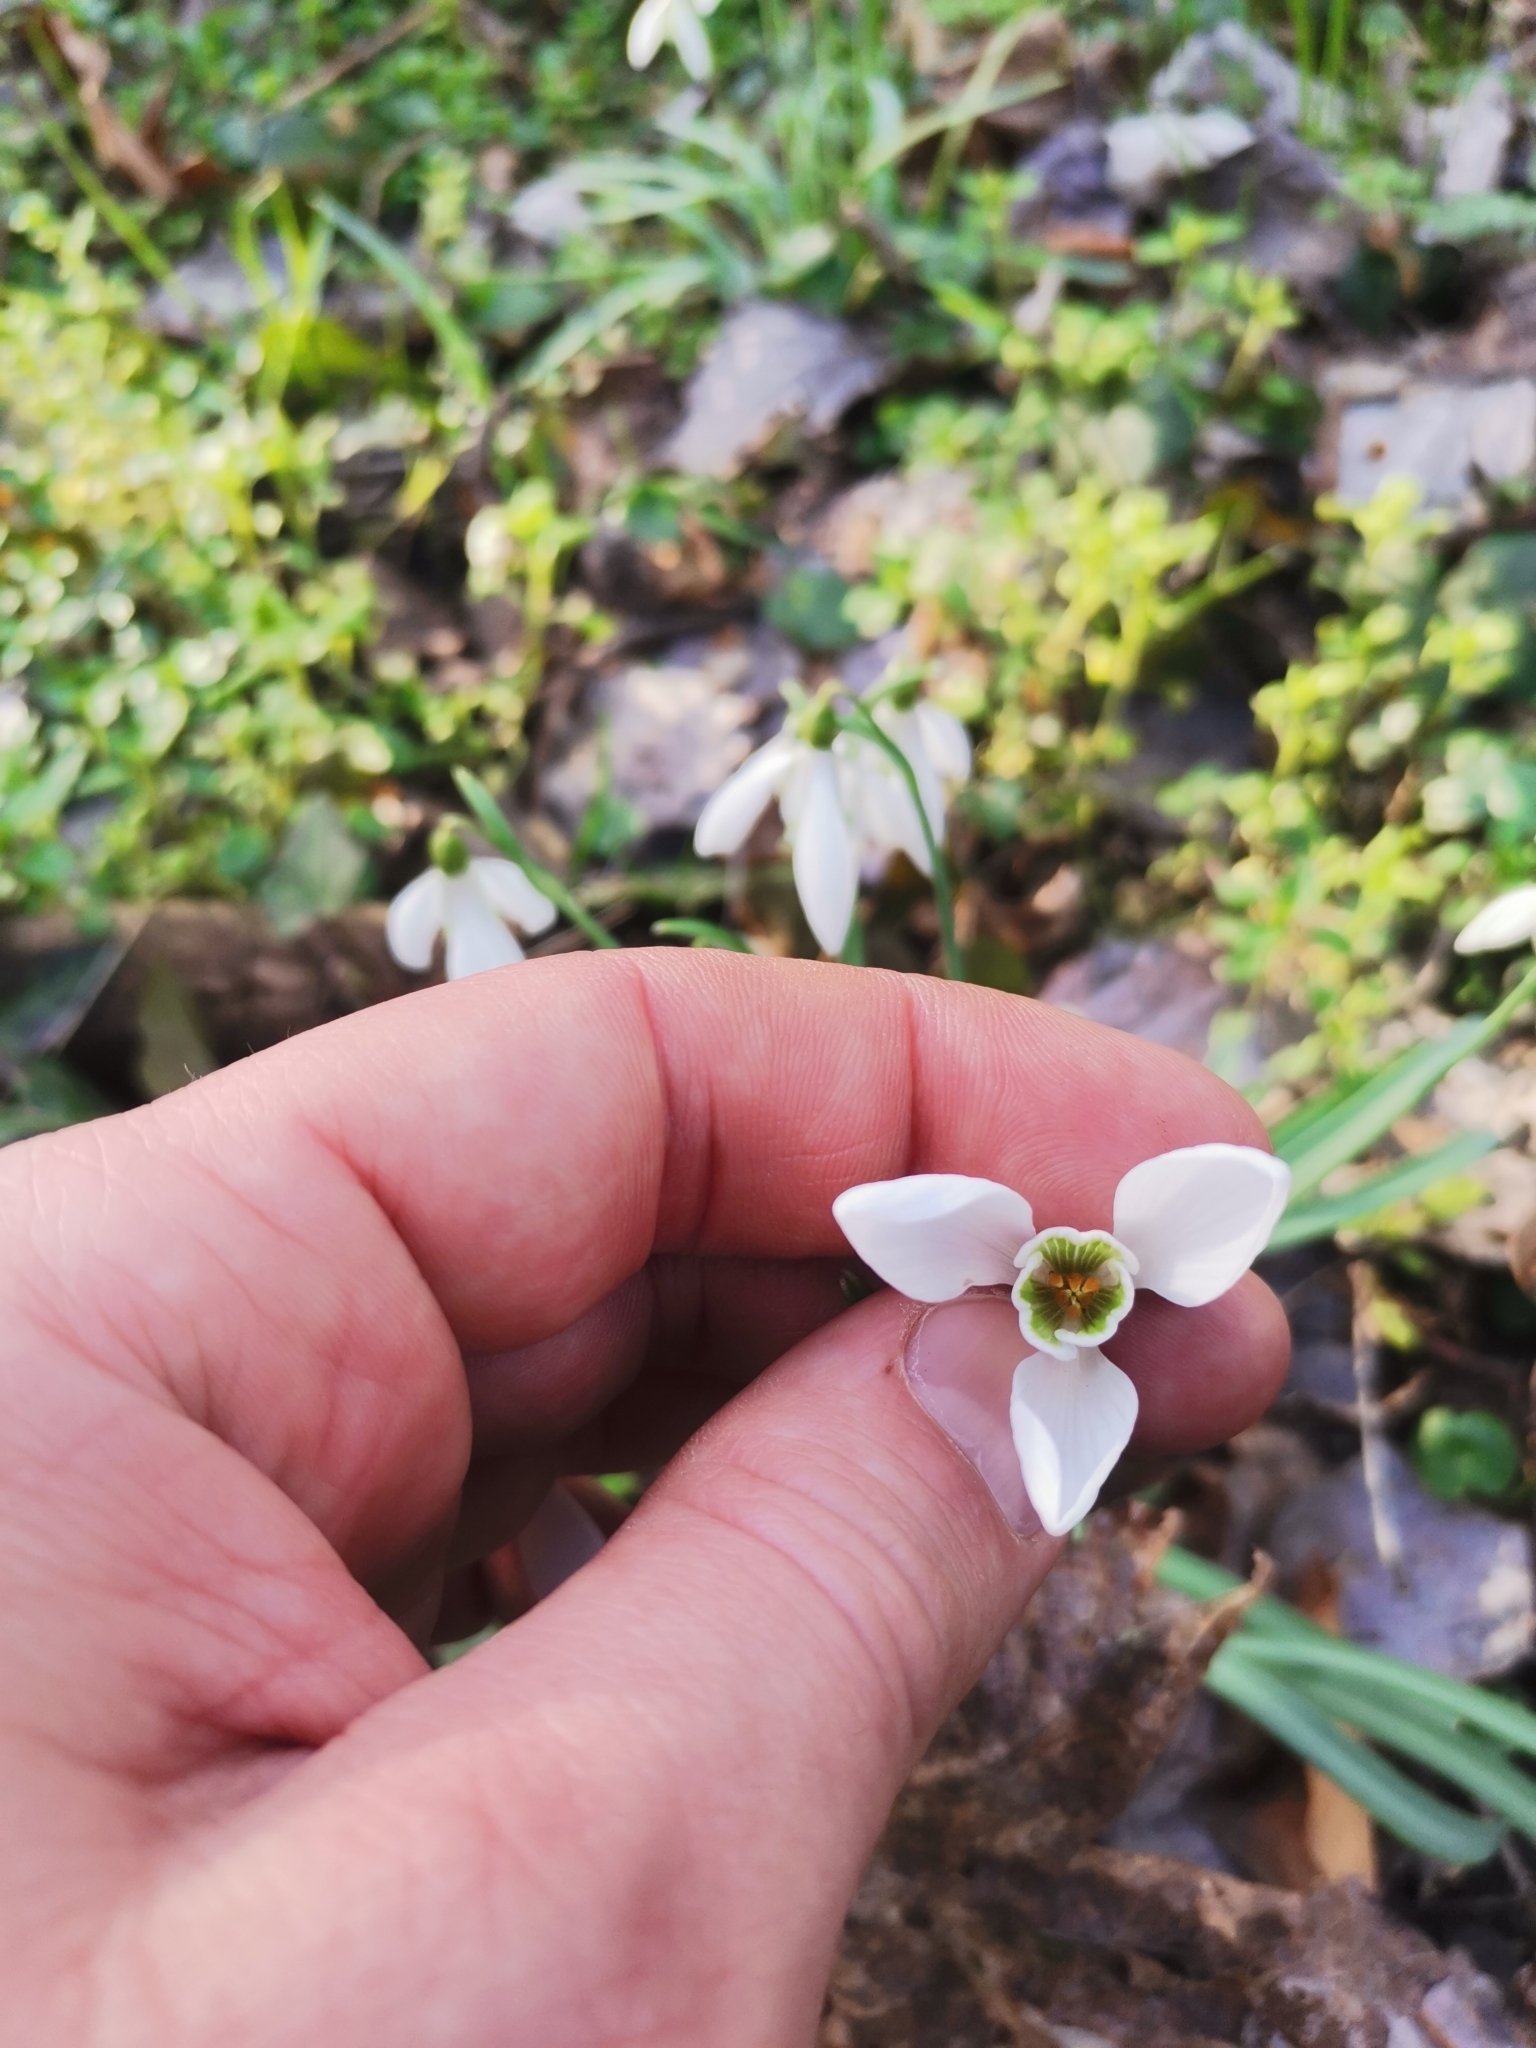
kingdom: Plantae
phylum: Tracheophyta
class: Liliopsida
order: Asparagales
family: Amaryllidaceae
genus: Galanthus
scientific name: Galanthus nivalis
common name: Snowdrop
